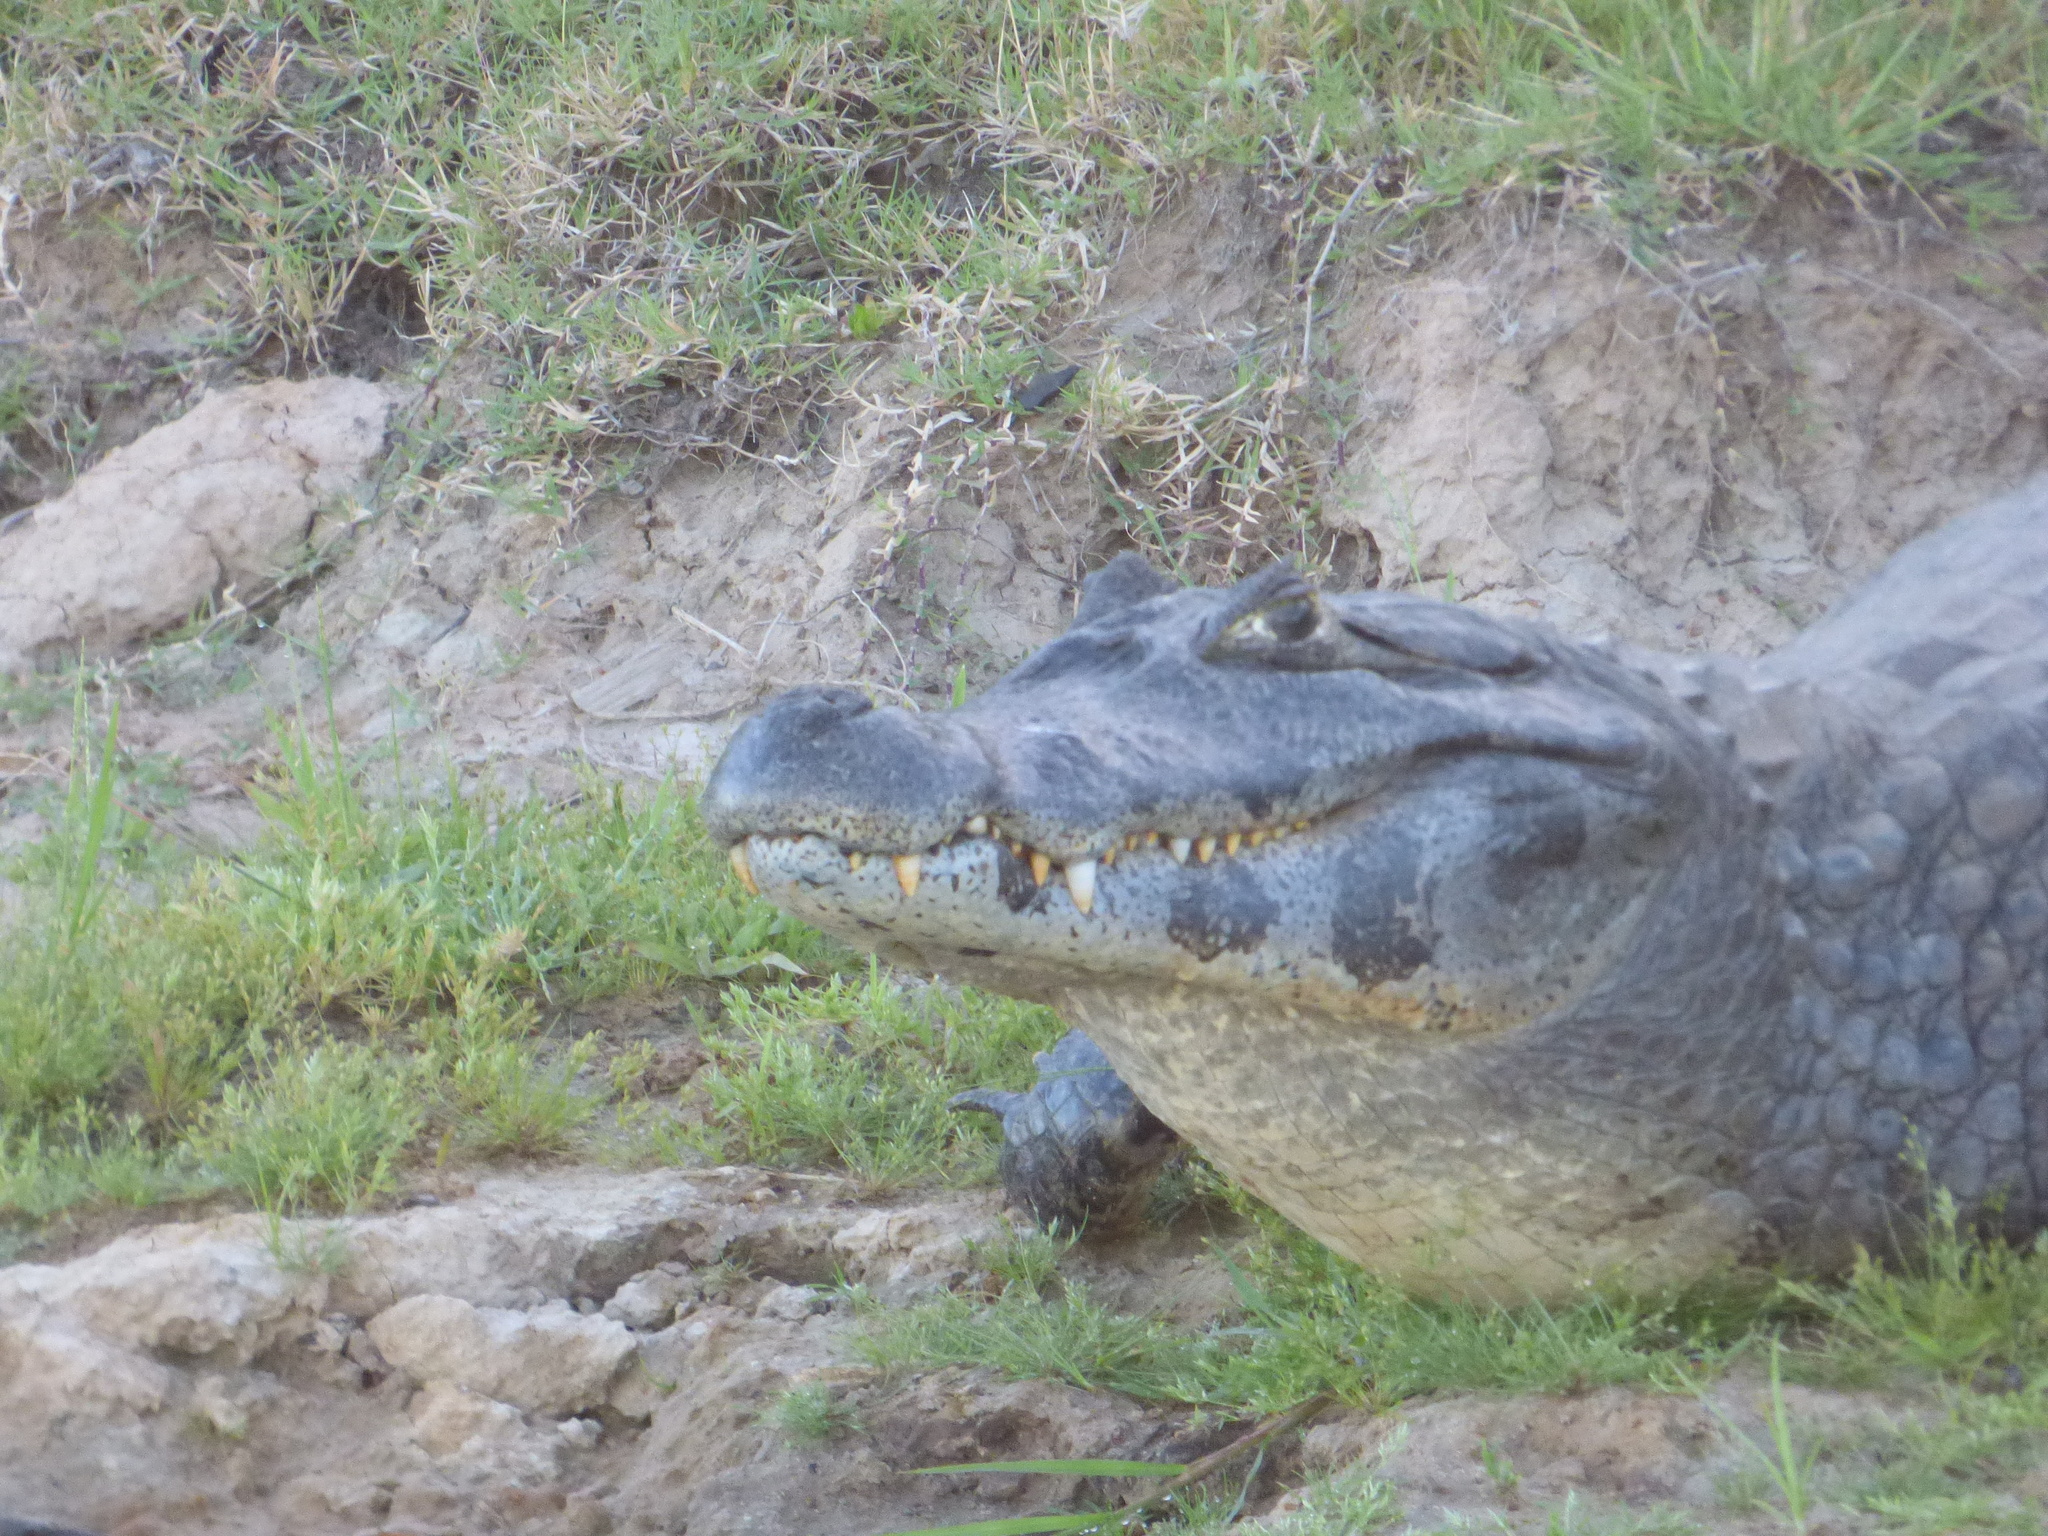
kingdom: Animalia
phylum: Chordata
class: Crocodylia
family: Alligatoridae
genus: Caiman
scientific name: Caiman yacare
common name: Yacare caiman
